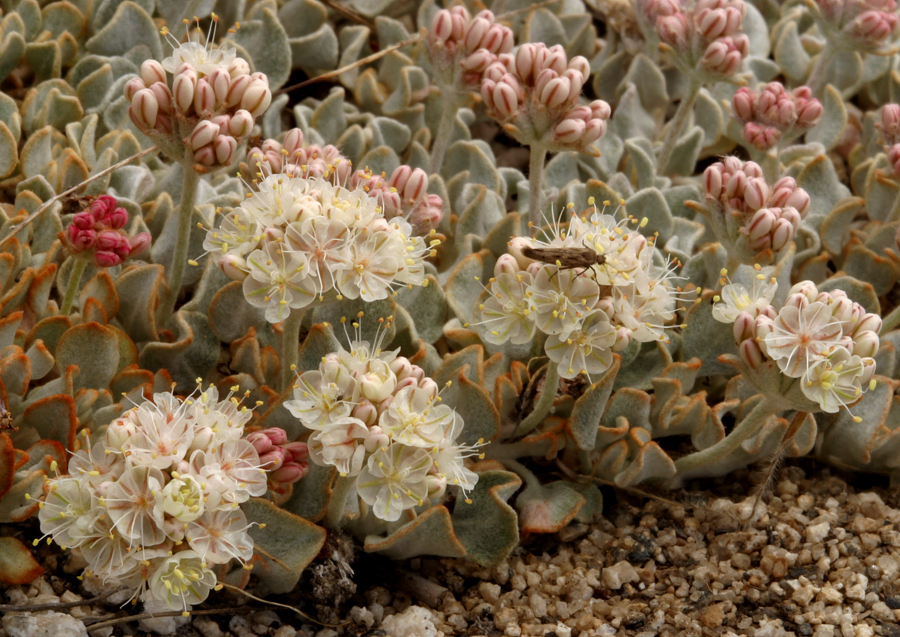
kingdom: Plantae
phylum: Tracheophyta
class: Magnoliopsida
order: Caryophyllales
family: Polygonaceae
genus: Eriogonum
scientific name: Eriogonum ovalifolium
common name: Cushion buckwheat
